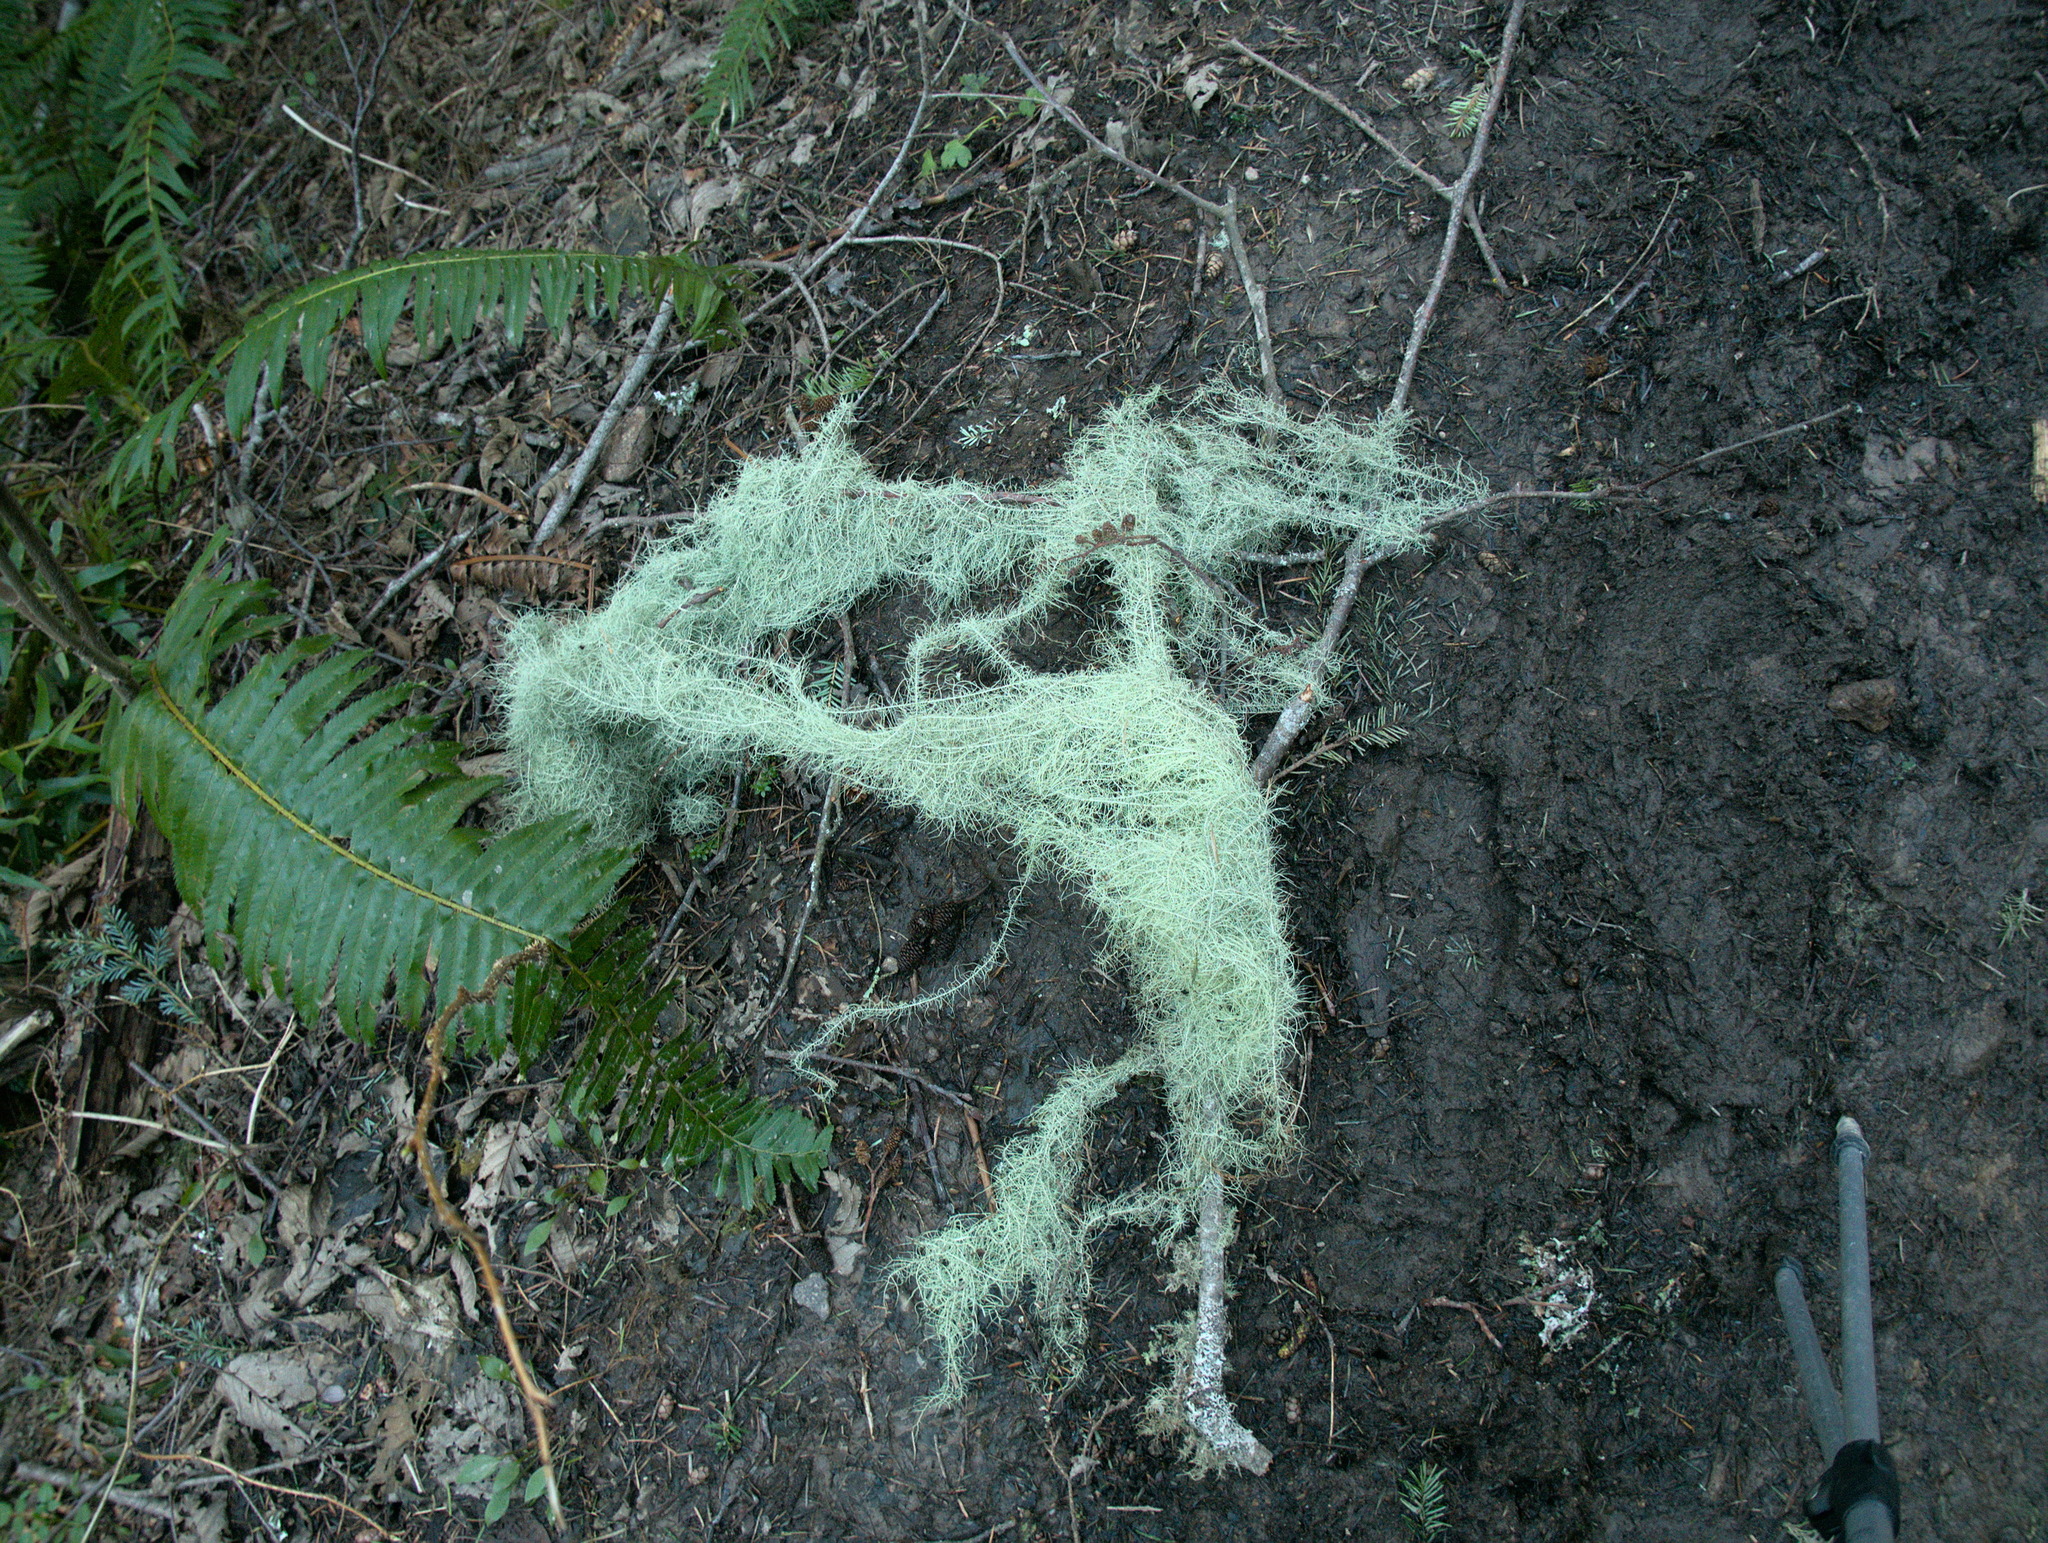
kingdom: Fungi
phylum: Ascomycota
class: Lecanoromycetes
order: Lecanorales
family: Parmeliaceae
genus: Dolichousnea
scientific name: Dolichousnea longissima
